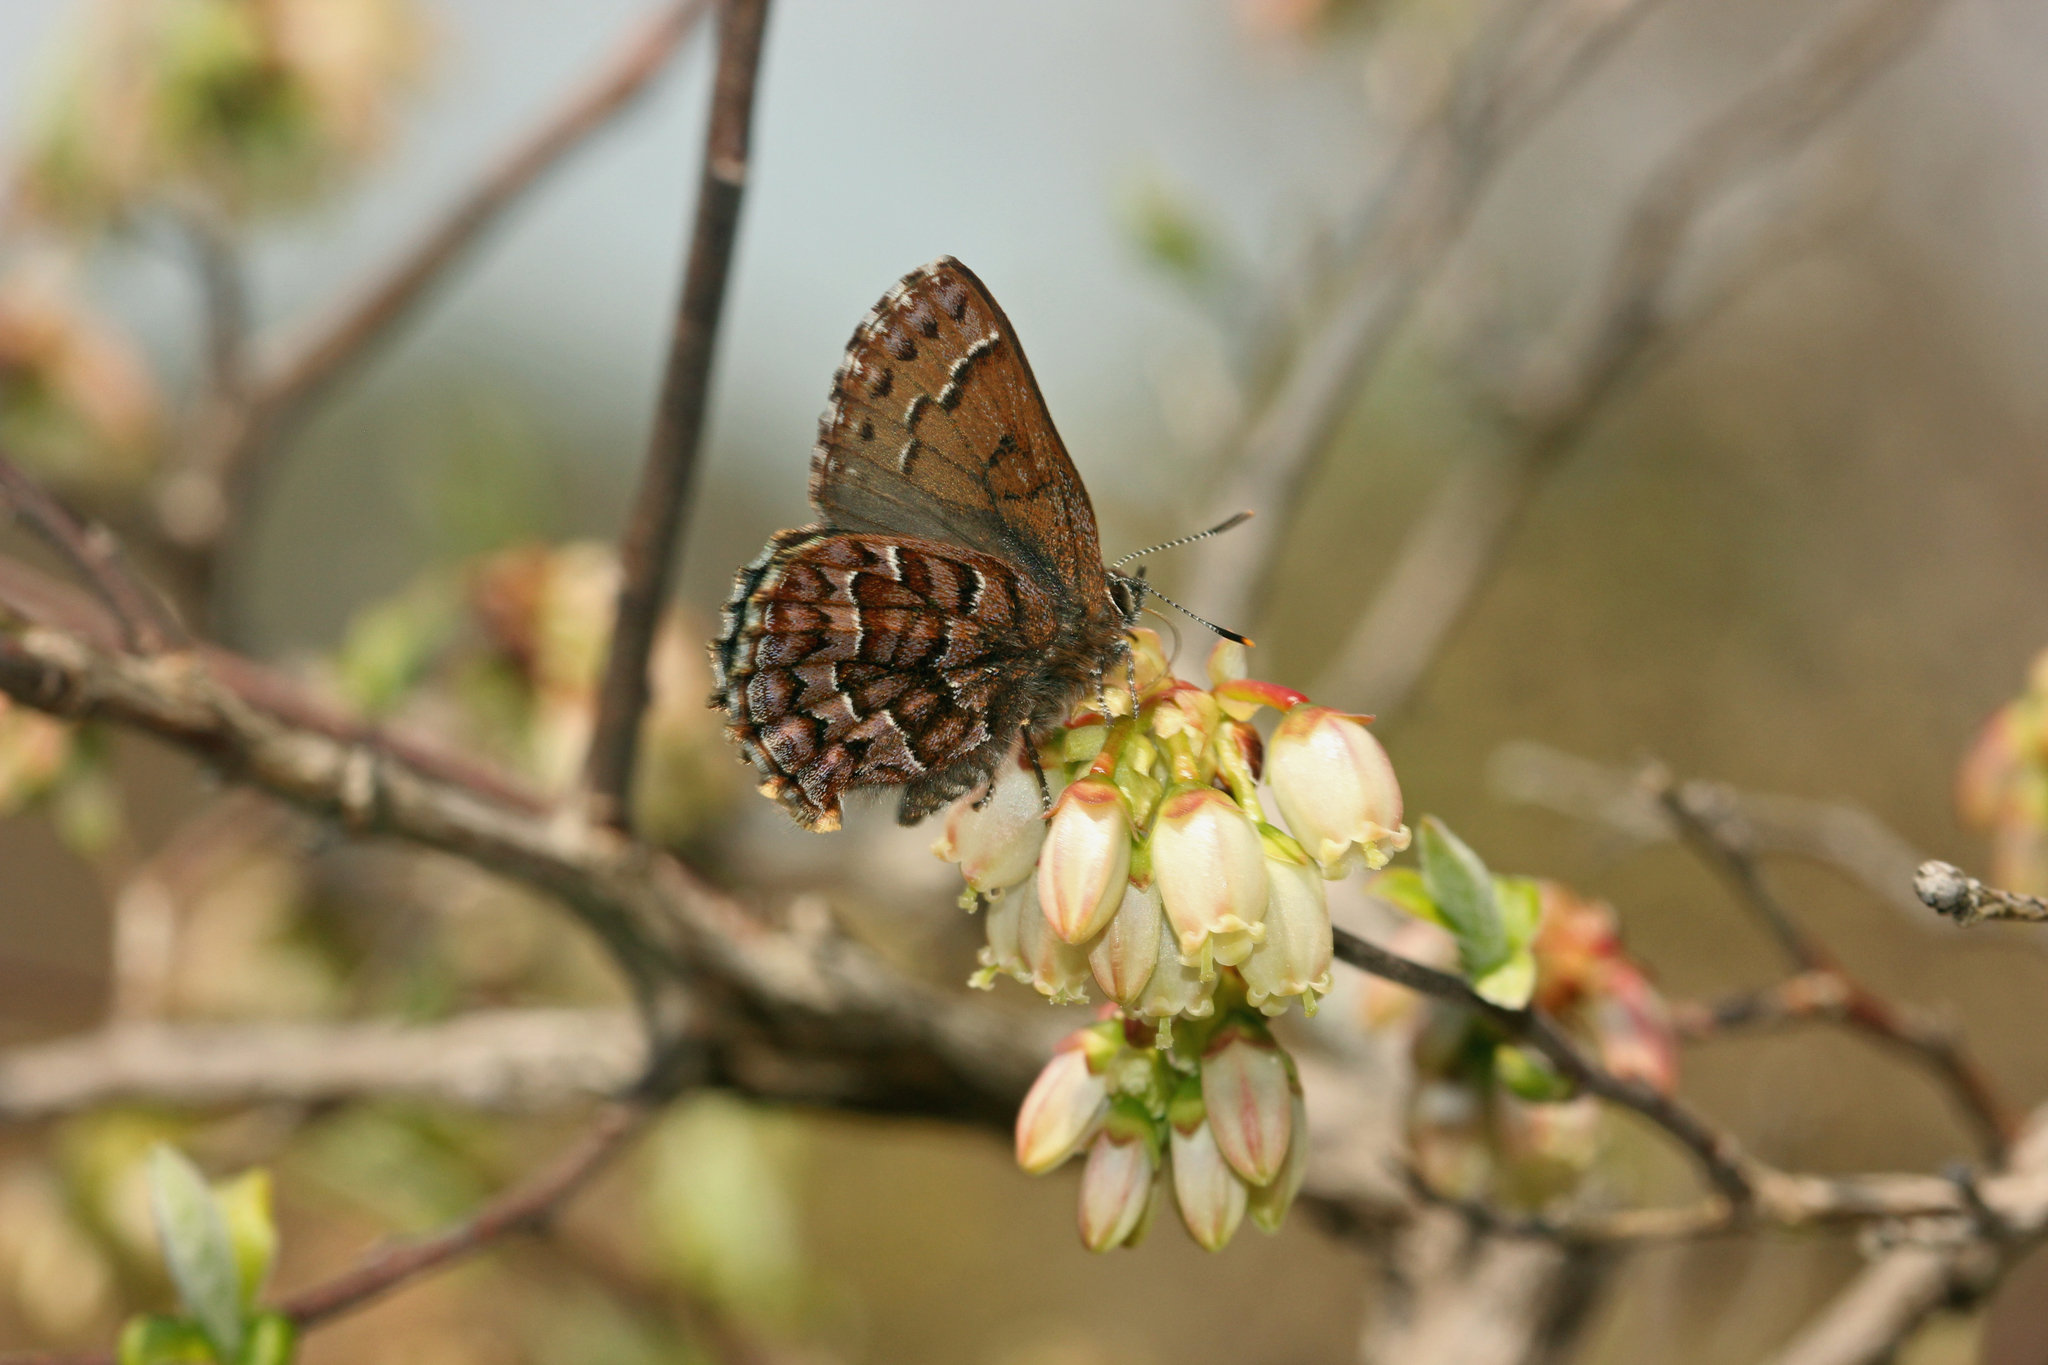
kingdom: Animalia
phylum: Arthropoda
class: Insecta
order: Lepidoptera
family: Lycaenidae
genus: Incisalia
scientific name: Incisalia niphon
